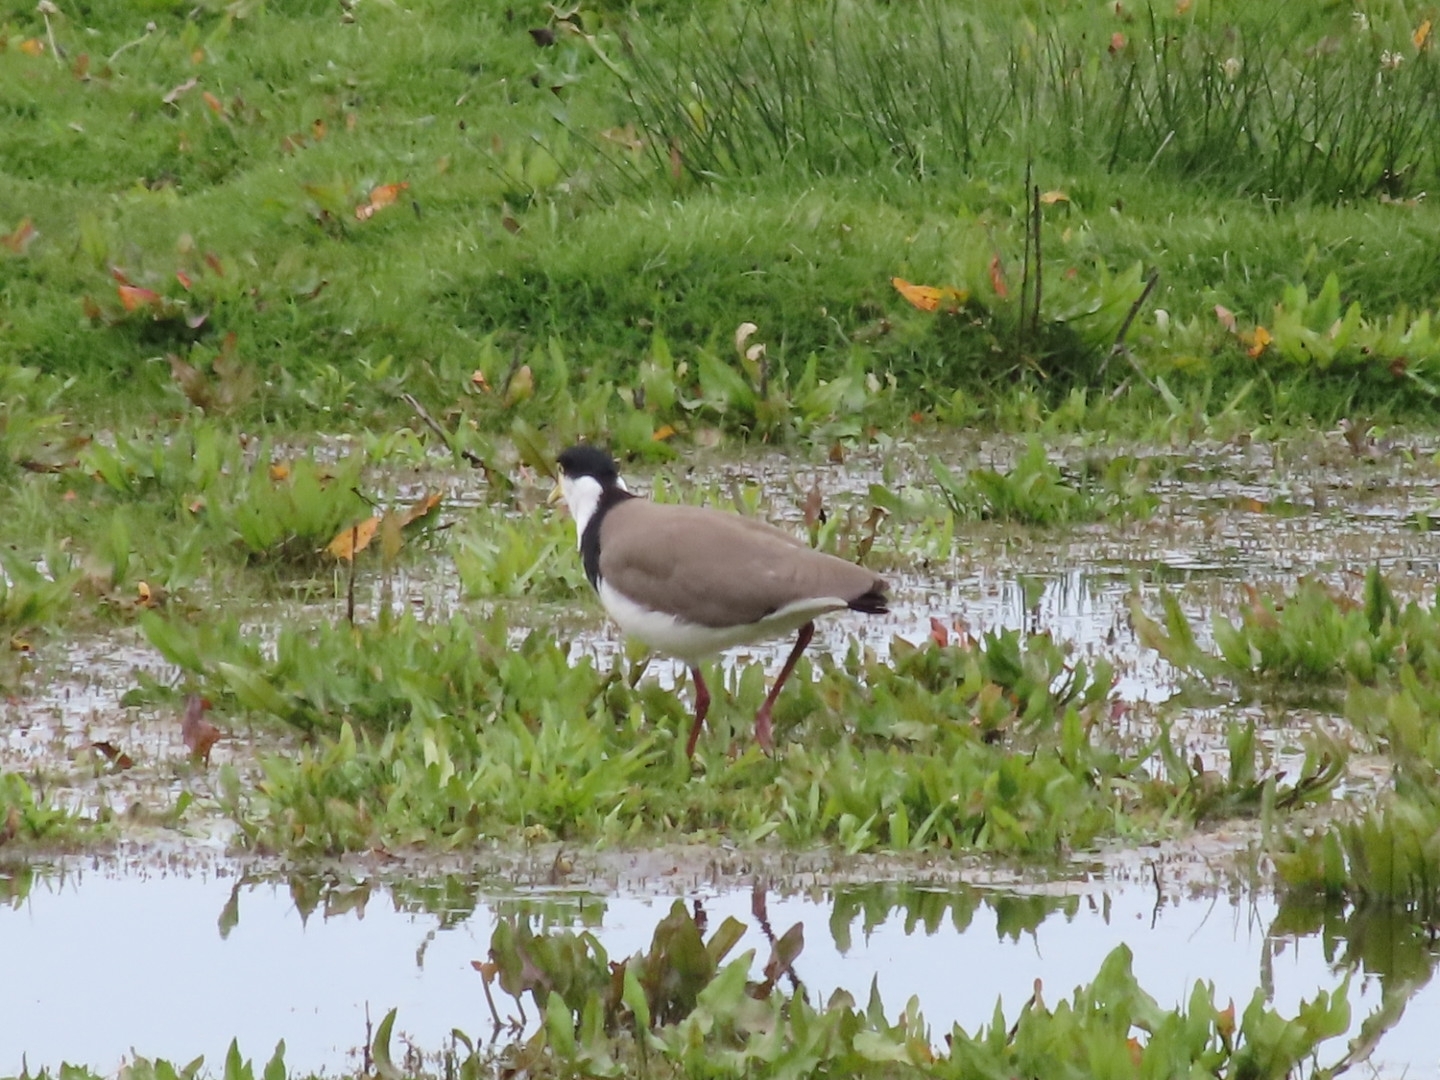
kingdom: Animalia
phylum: Chordata
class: Aves
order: Charadriiformes
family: Charadriidae
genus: Vanellus
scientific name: Vanellus miles
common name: Masked lapwing
